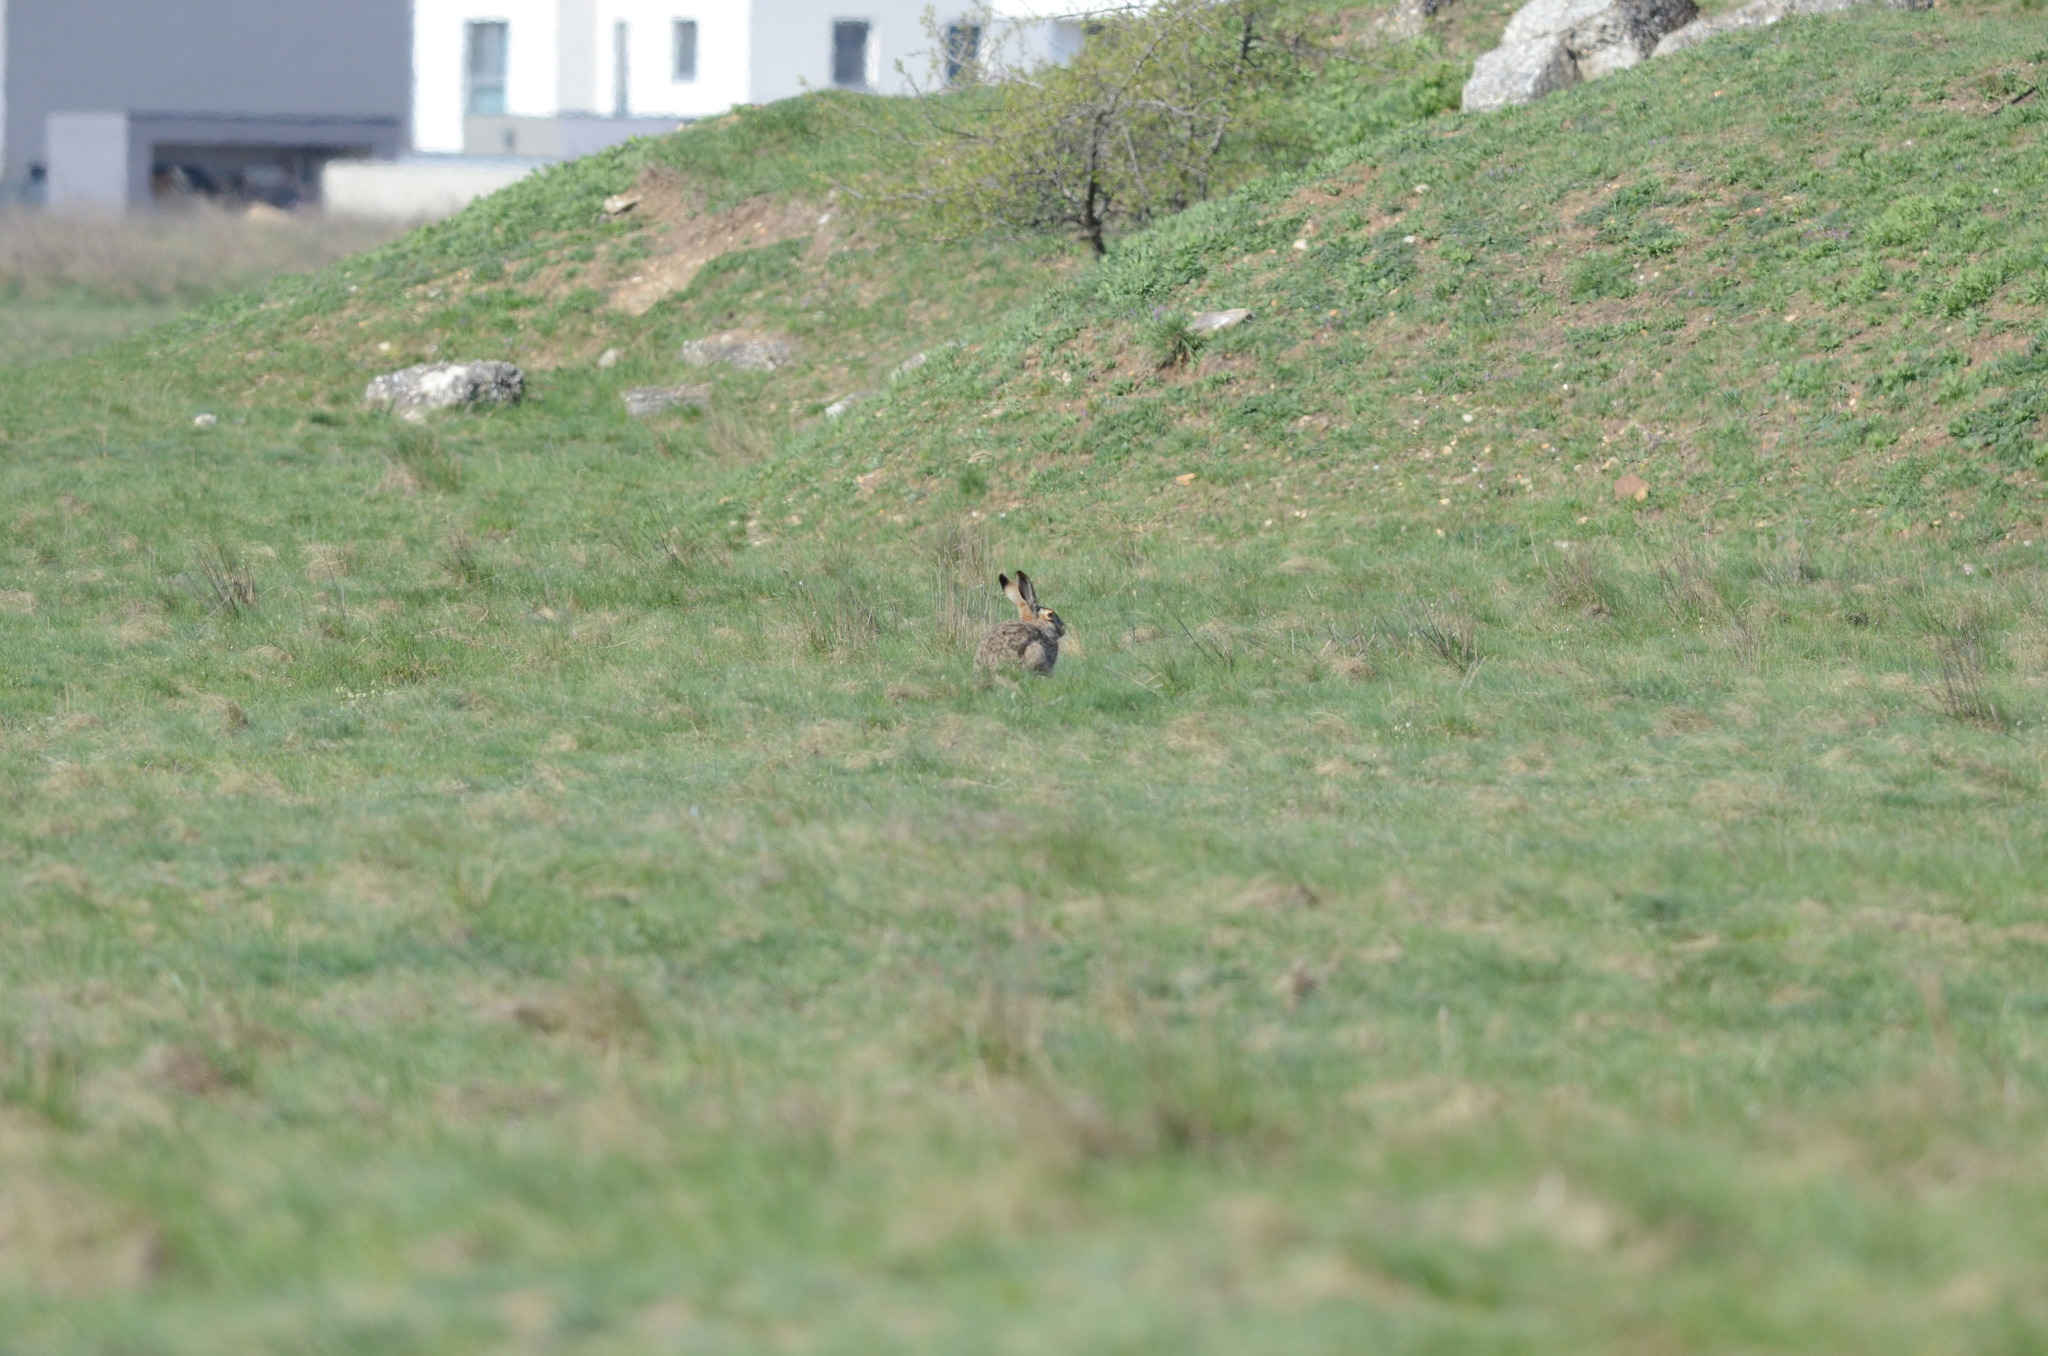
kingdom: Animalia
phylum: Chordata
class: Mammalia
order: Lagomorpha
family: Leporidae
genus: Lepus
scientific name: Lepus europaeus
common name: European hare
